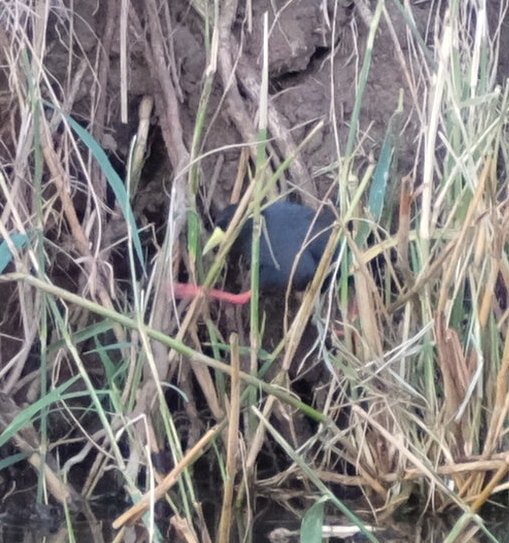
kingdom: Animalia
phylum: Chordata
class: Aves
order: Gruiformes
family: Rallidae
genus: Amaurornis
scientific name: Amaurornis flavirostra
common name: Black crake
